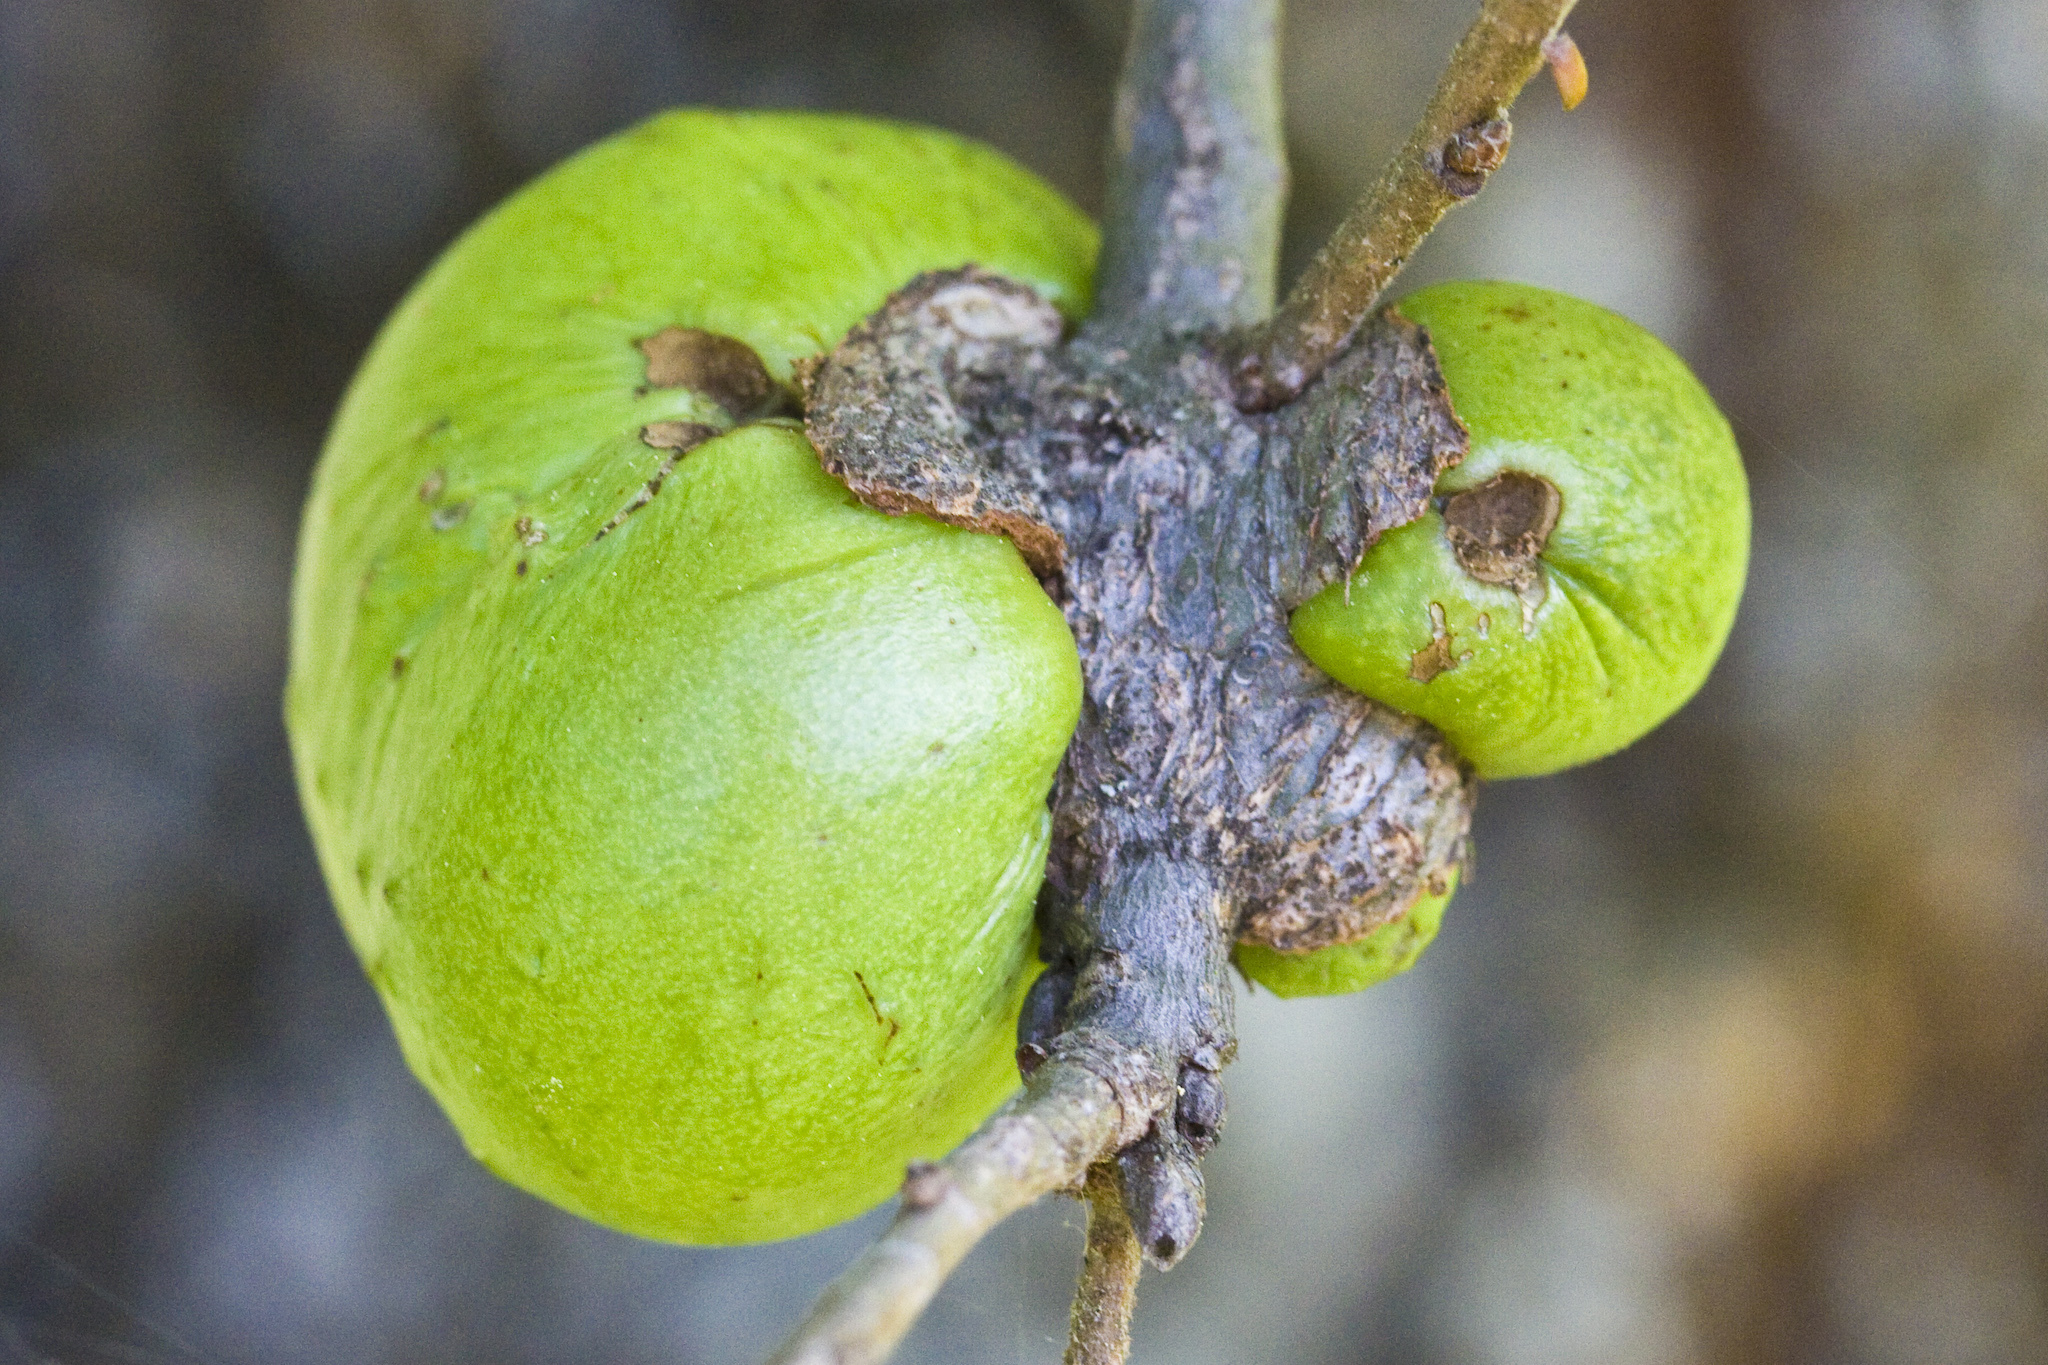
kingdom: Animalia
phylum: Arthropoda
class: Insecta
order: Hymenoptera
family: Cynipidae
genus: Andricus
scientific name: Andricus quercuscalifornicus
